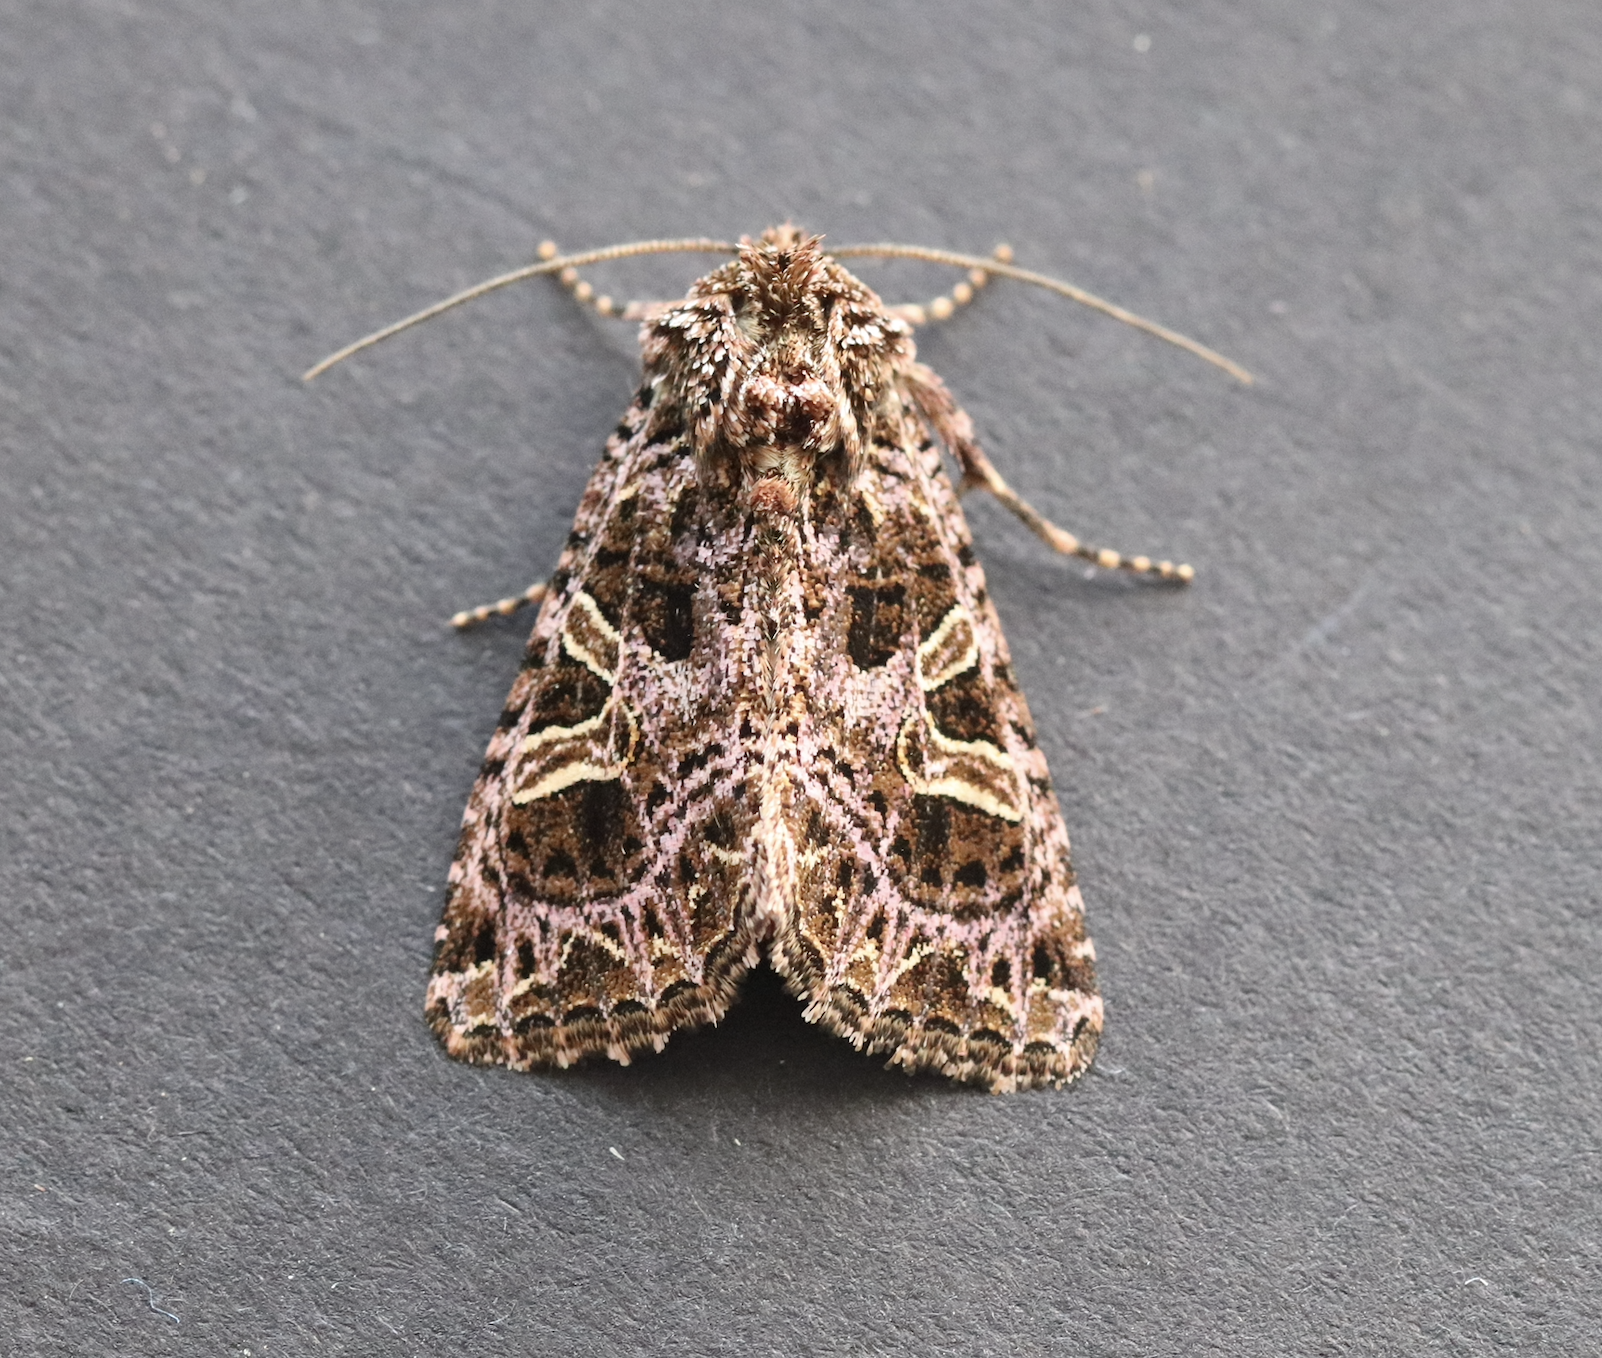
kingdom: Animalia
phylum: Arthropoda
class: Insecta
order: Lepidoptera
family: Noctuidae
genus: Sideridis
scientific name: Sideridis rivularis
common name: Campion
